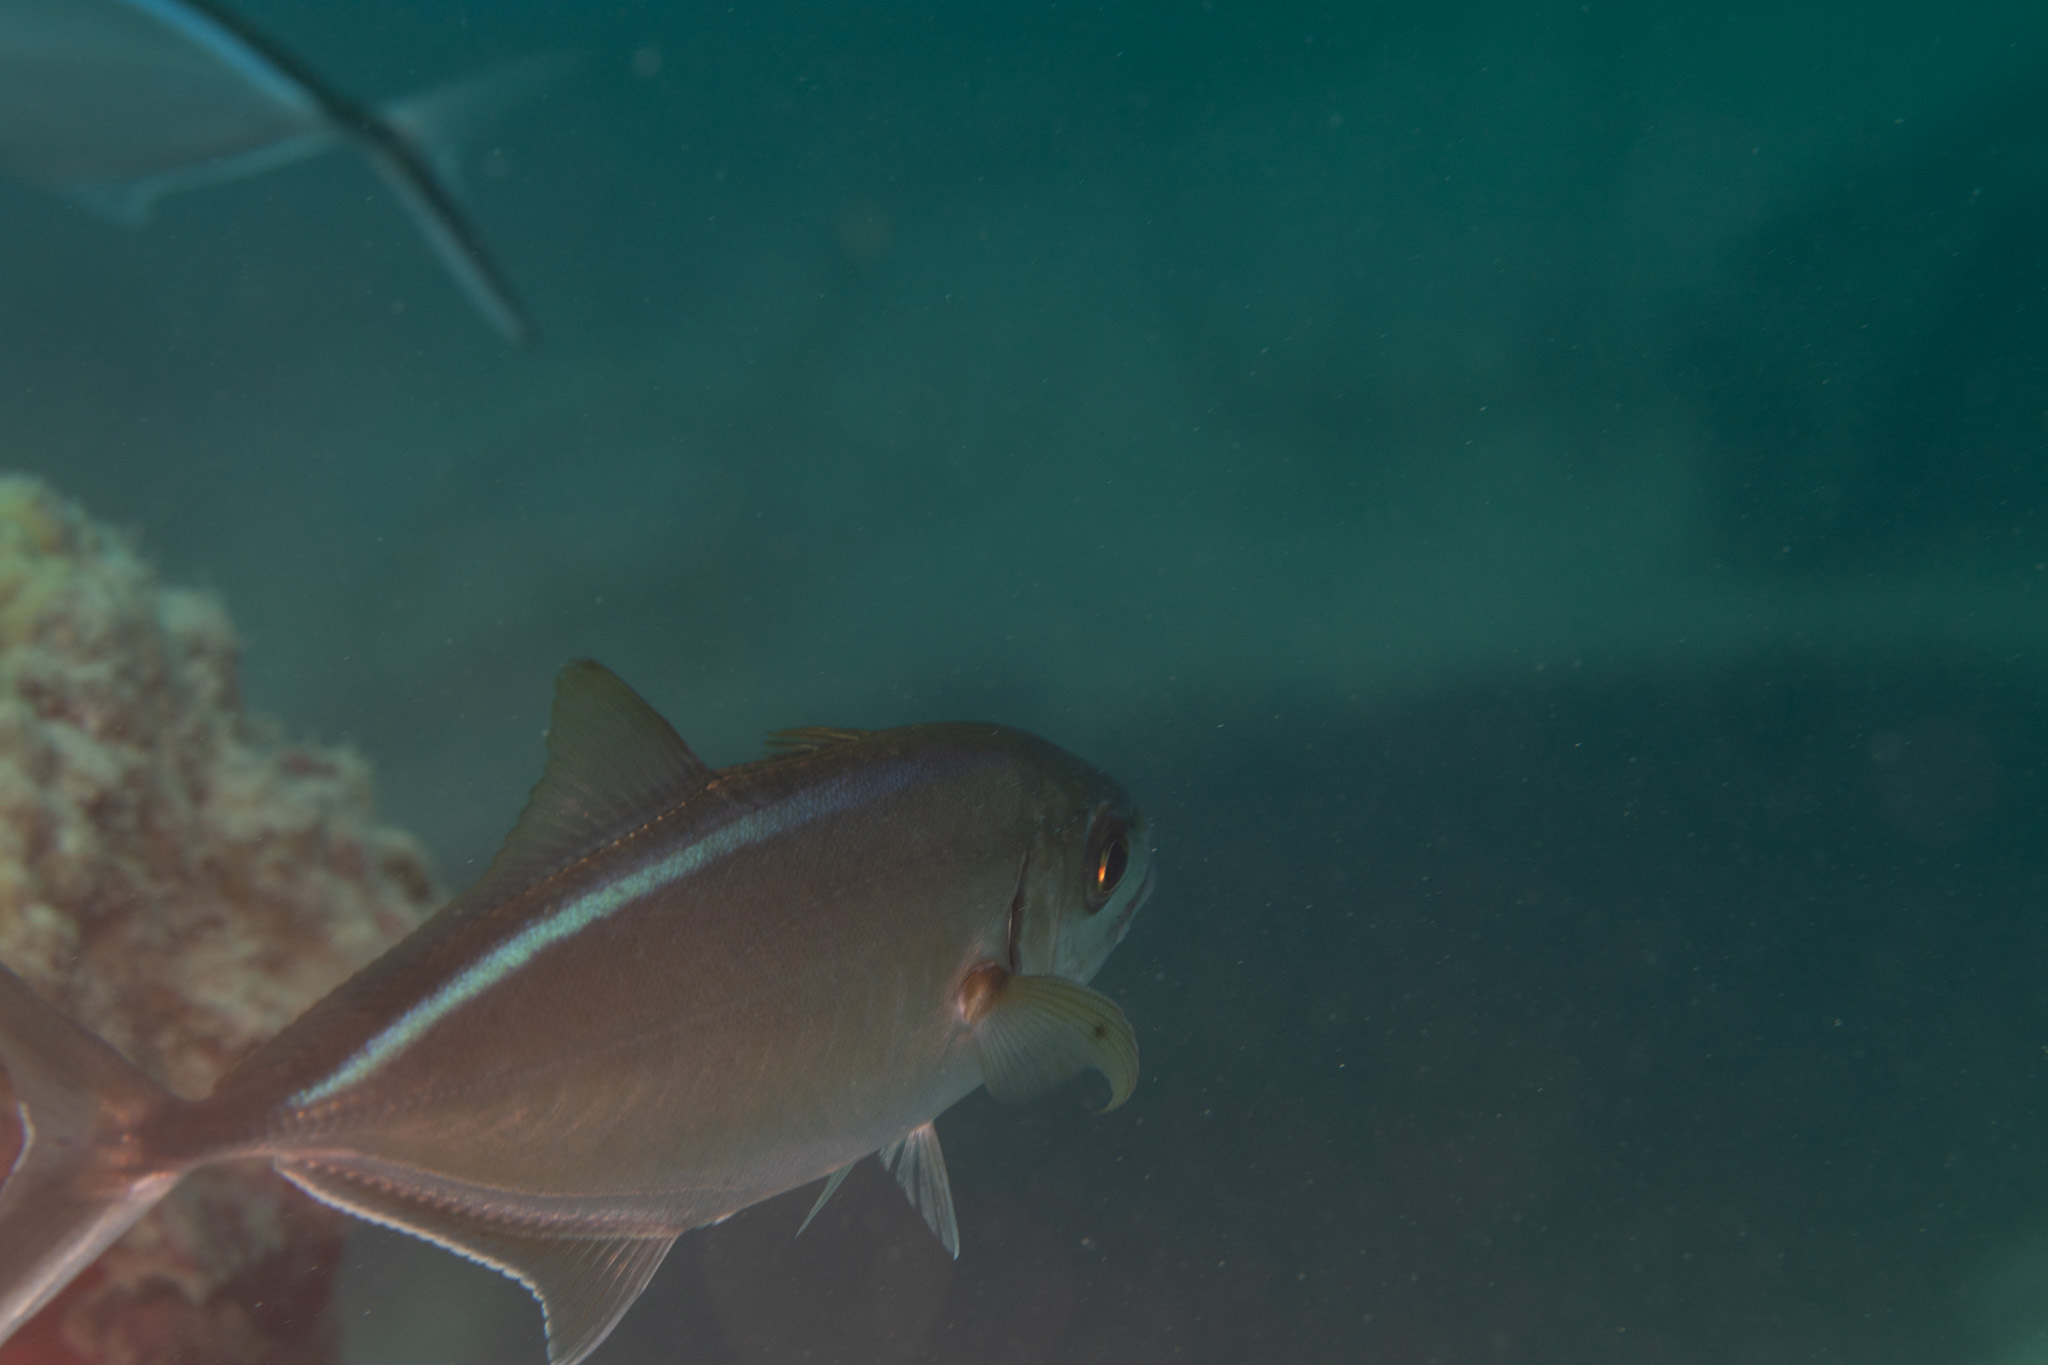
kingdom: Animalia
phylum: Chordata
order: Perciformes
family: Carangidae
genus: Caranx
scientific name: Caranx ruber
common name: Bar jack
